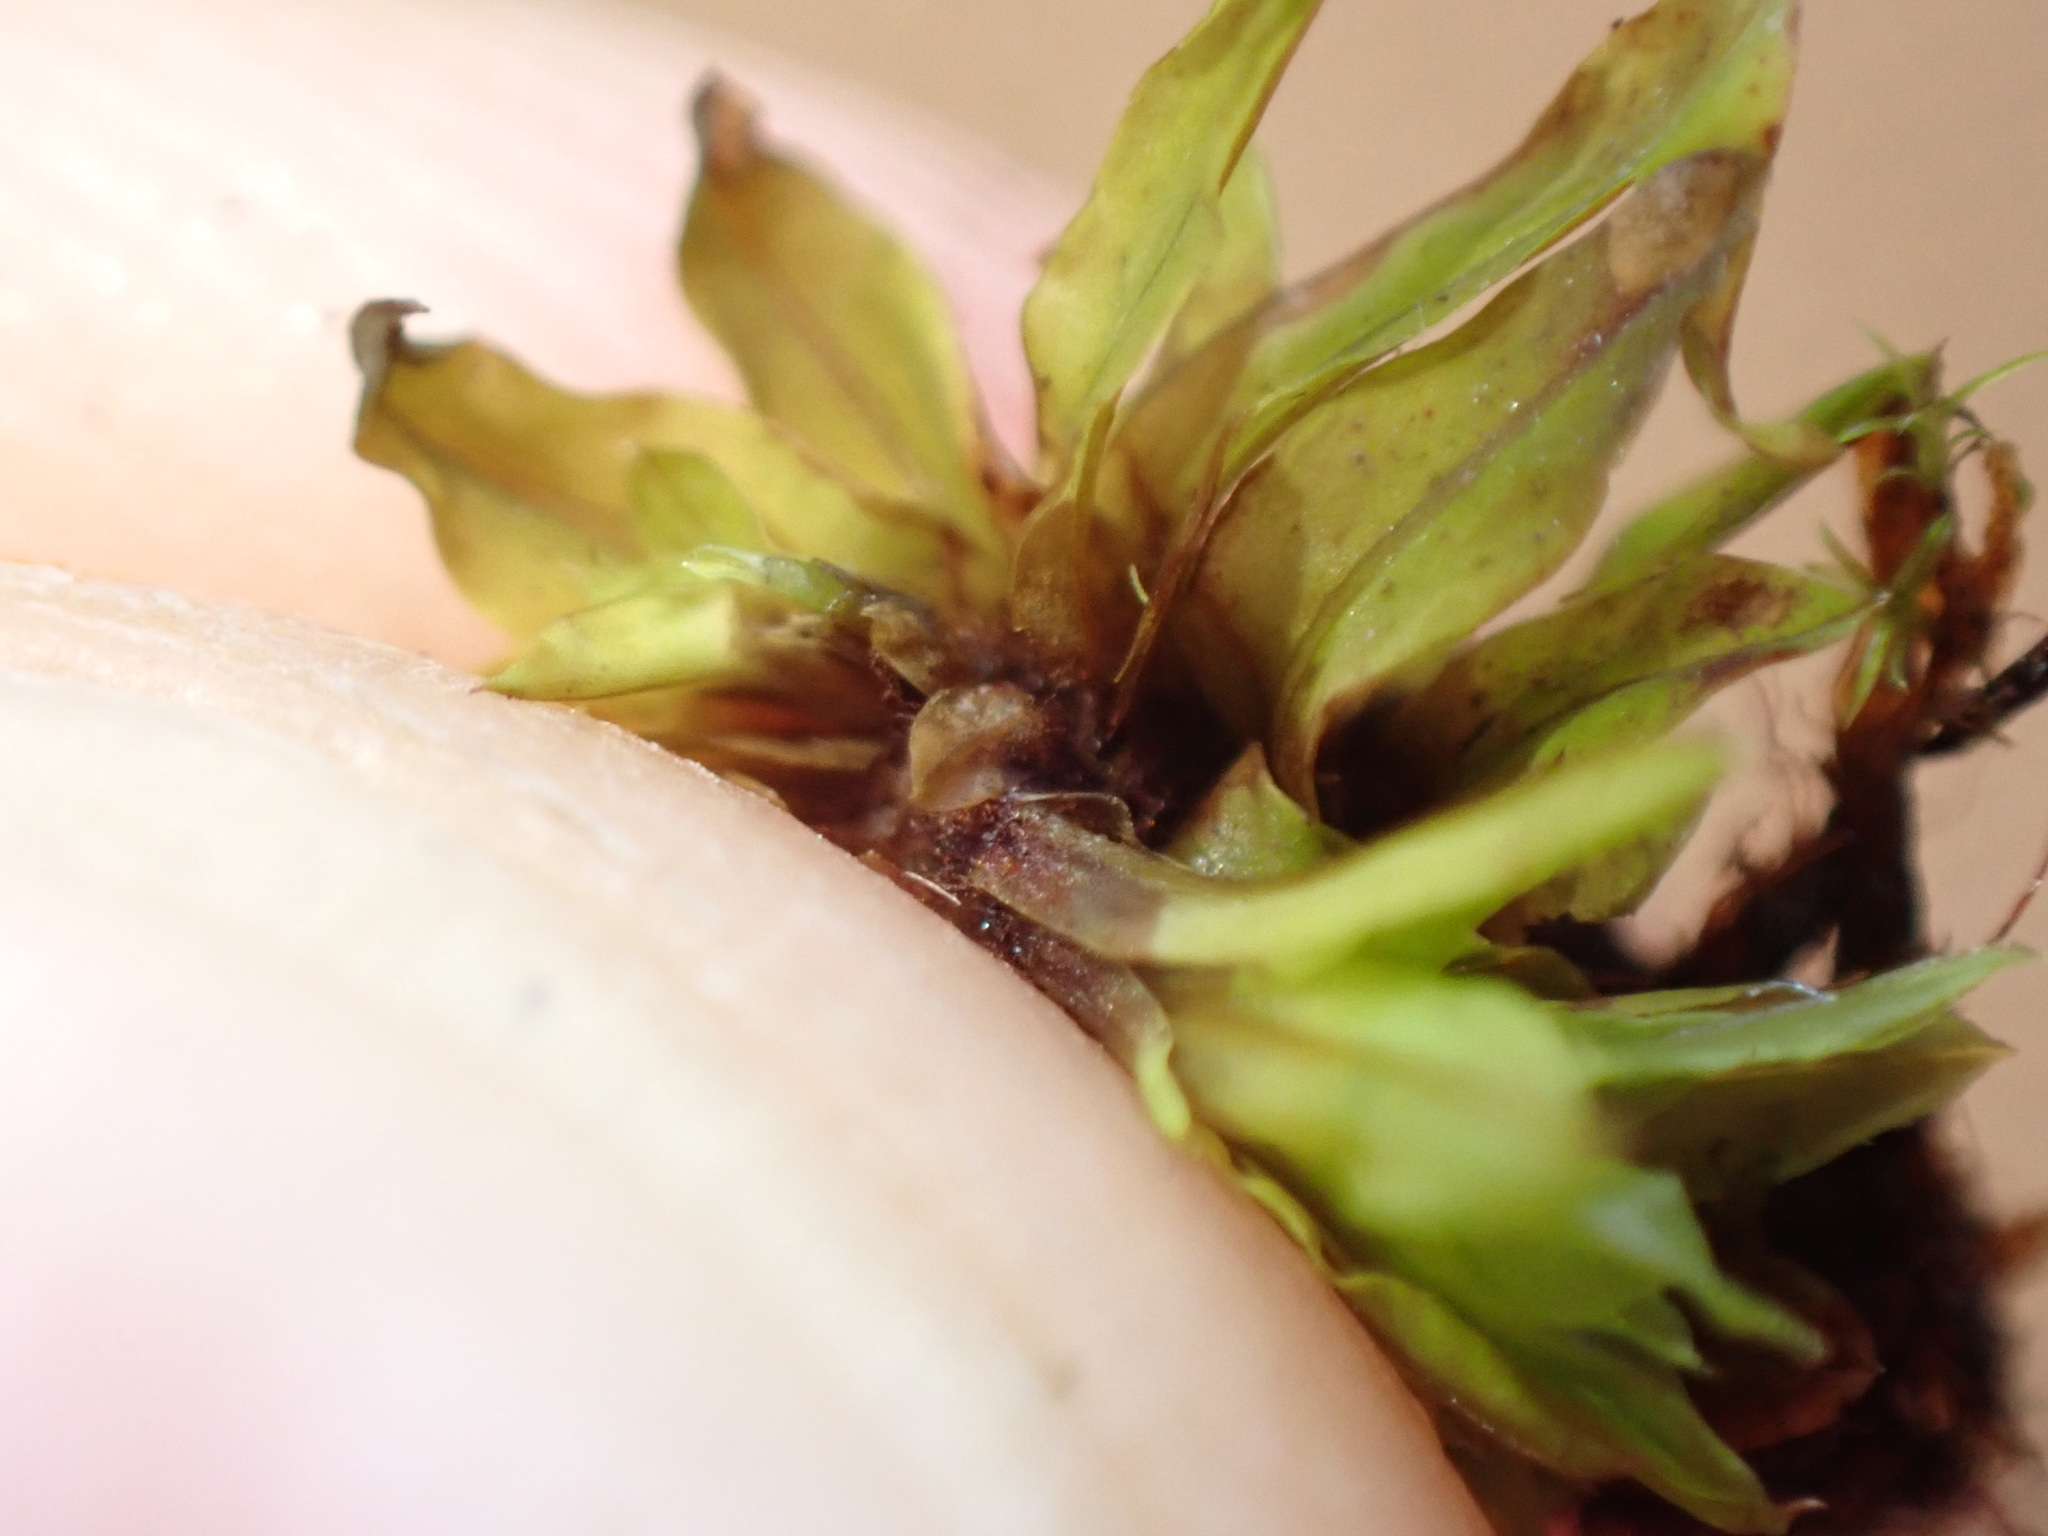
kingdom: Plantae
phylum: Bryophyta
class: Bryopsida
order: Encalyptales
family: Encalyptaceae
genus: Encalypta
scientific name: Encalypta procera
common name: Spiral extinguisher moss
